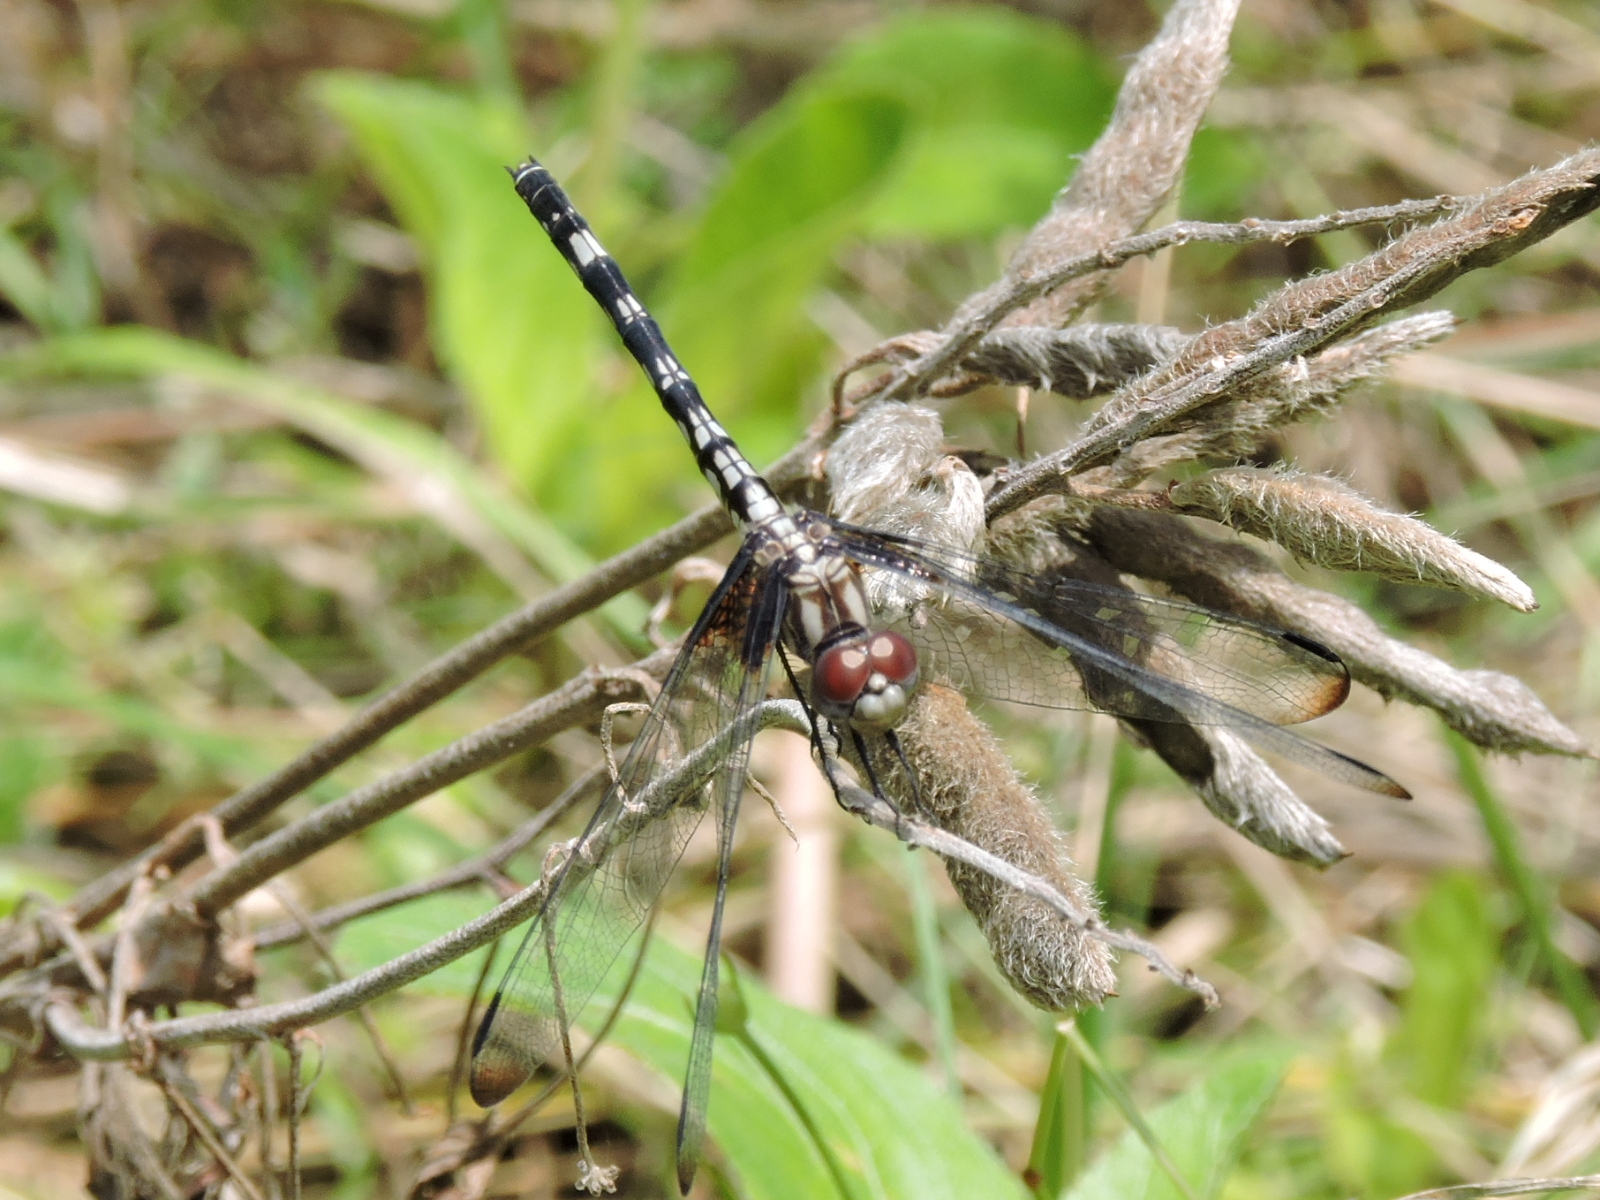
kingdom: Animalia
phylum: Arthropoda
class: Insecta
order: Odonata
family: Libellulidae
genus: Dythemis
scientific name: Dythemis fugax
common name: Checkered setwing
